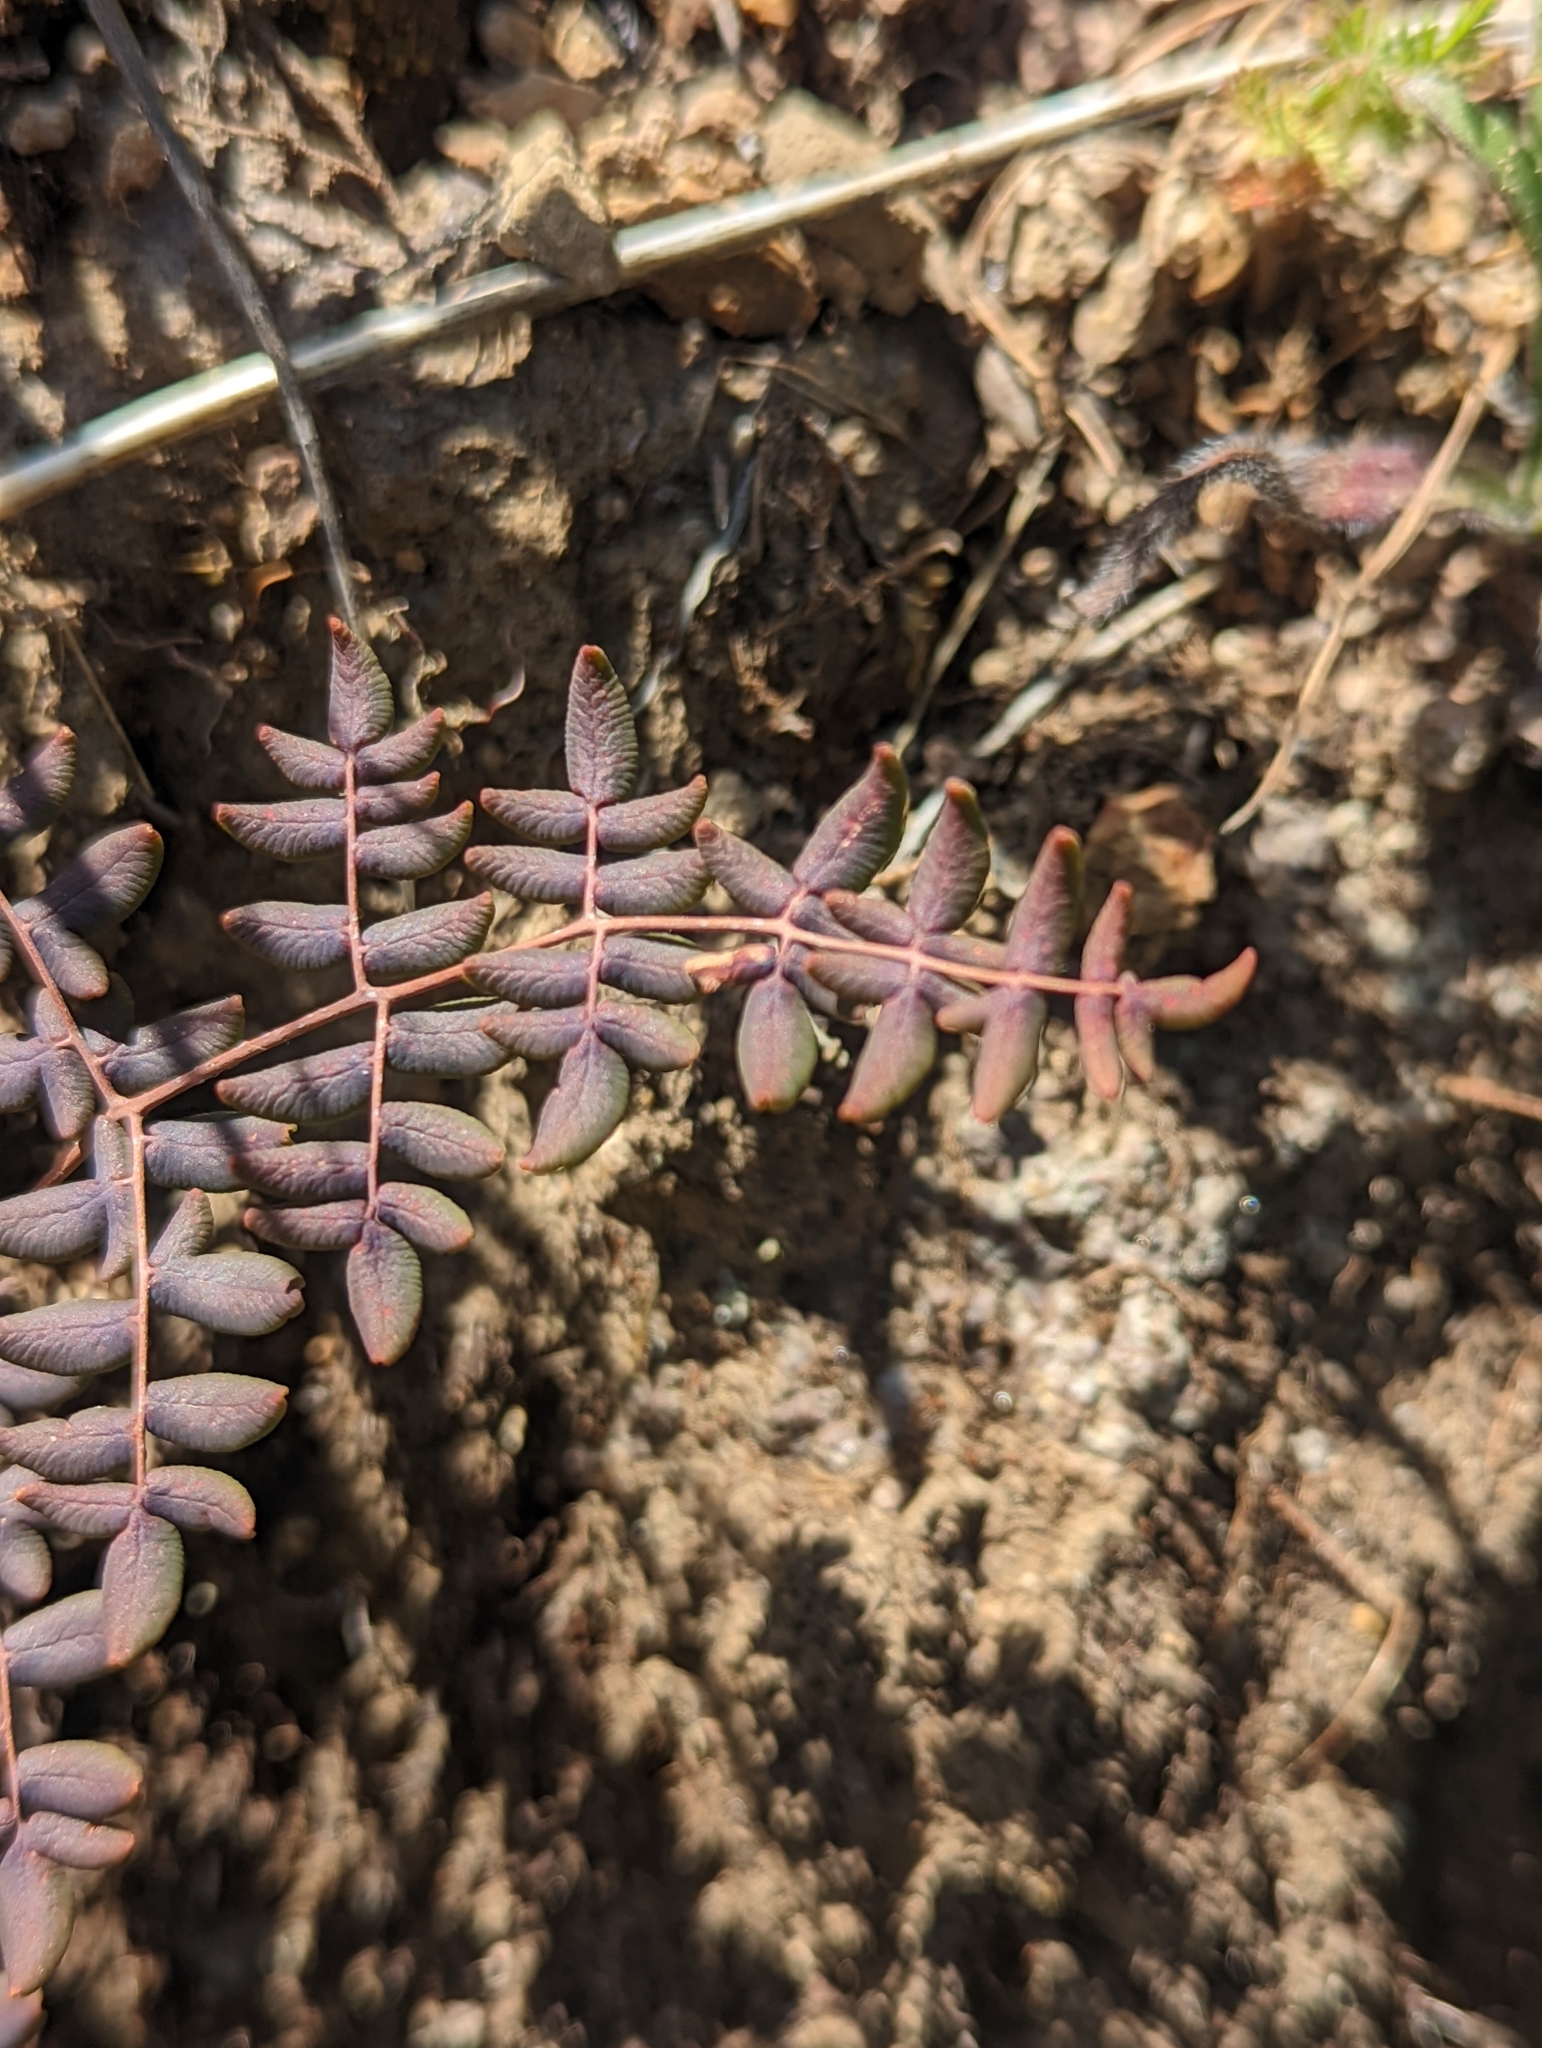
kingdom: Plantae
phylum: Tracheophyta
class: Polypodiopsida
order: Polypodiales
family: Pteridaceae
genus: Pellaea
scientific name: Pellaea andromedifolia
